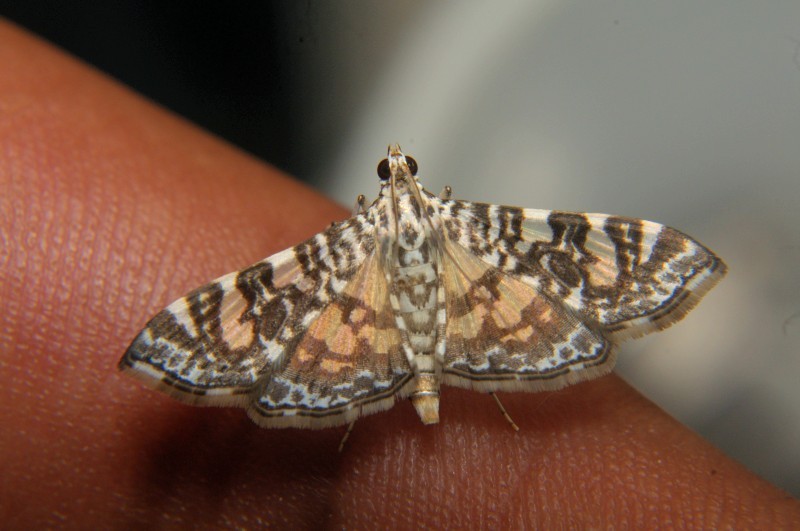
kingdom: Animalia
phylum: Arthropoda
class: Insecta
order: Lepidoptera
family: Crambidae
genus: Glyphodes
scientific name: Glyphodes onychinalis
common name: Swan plant moth
